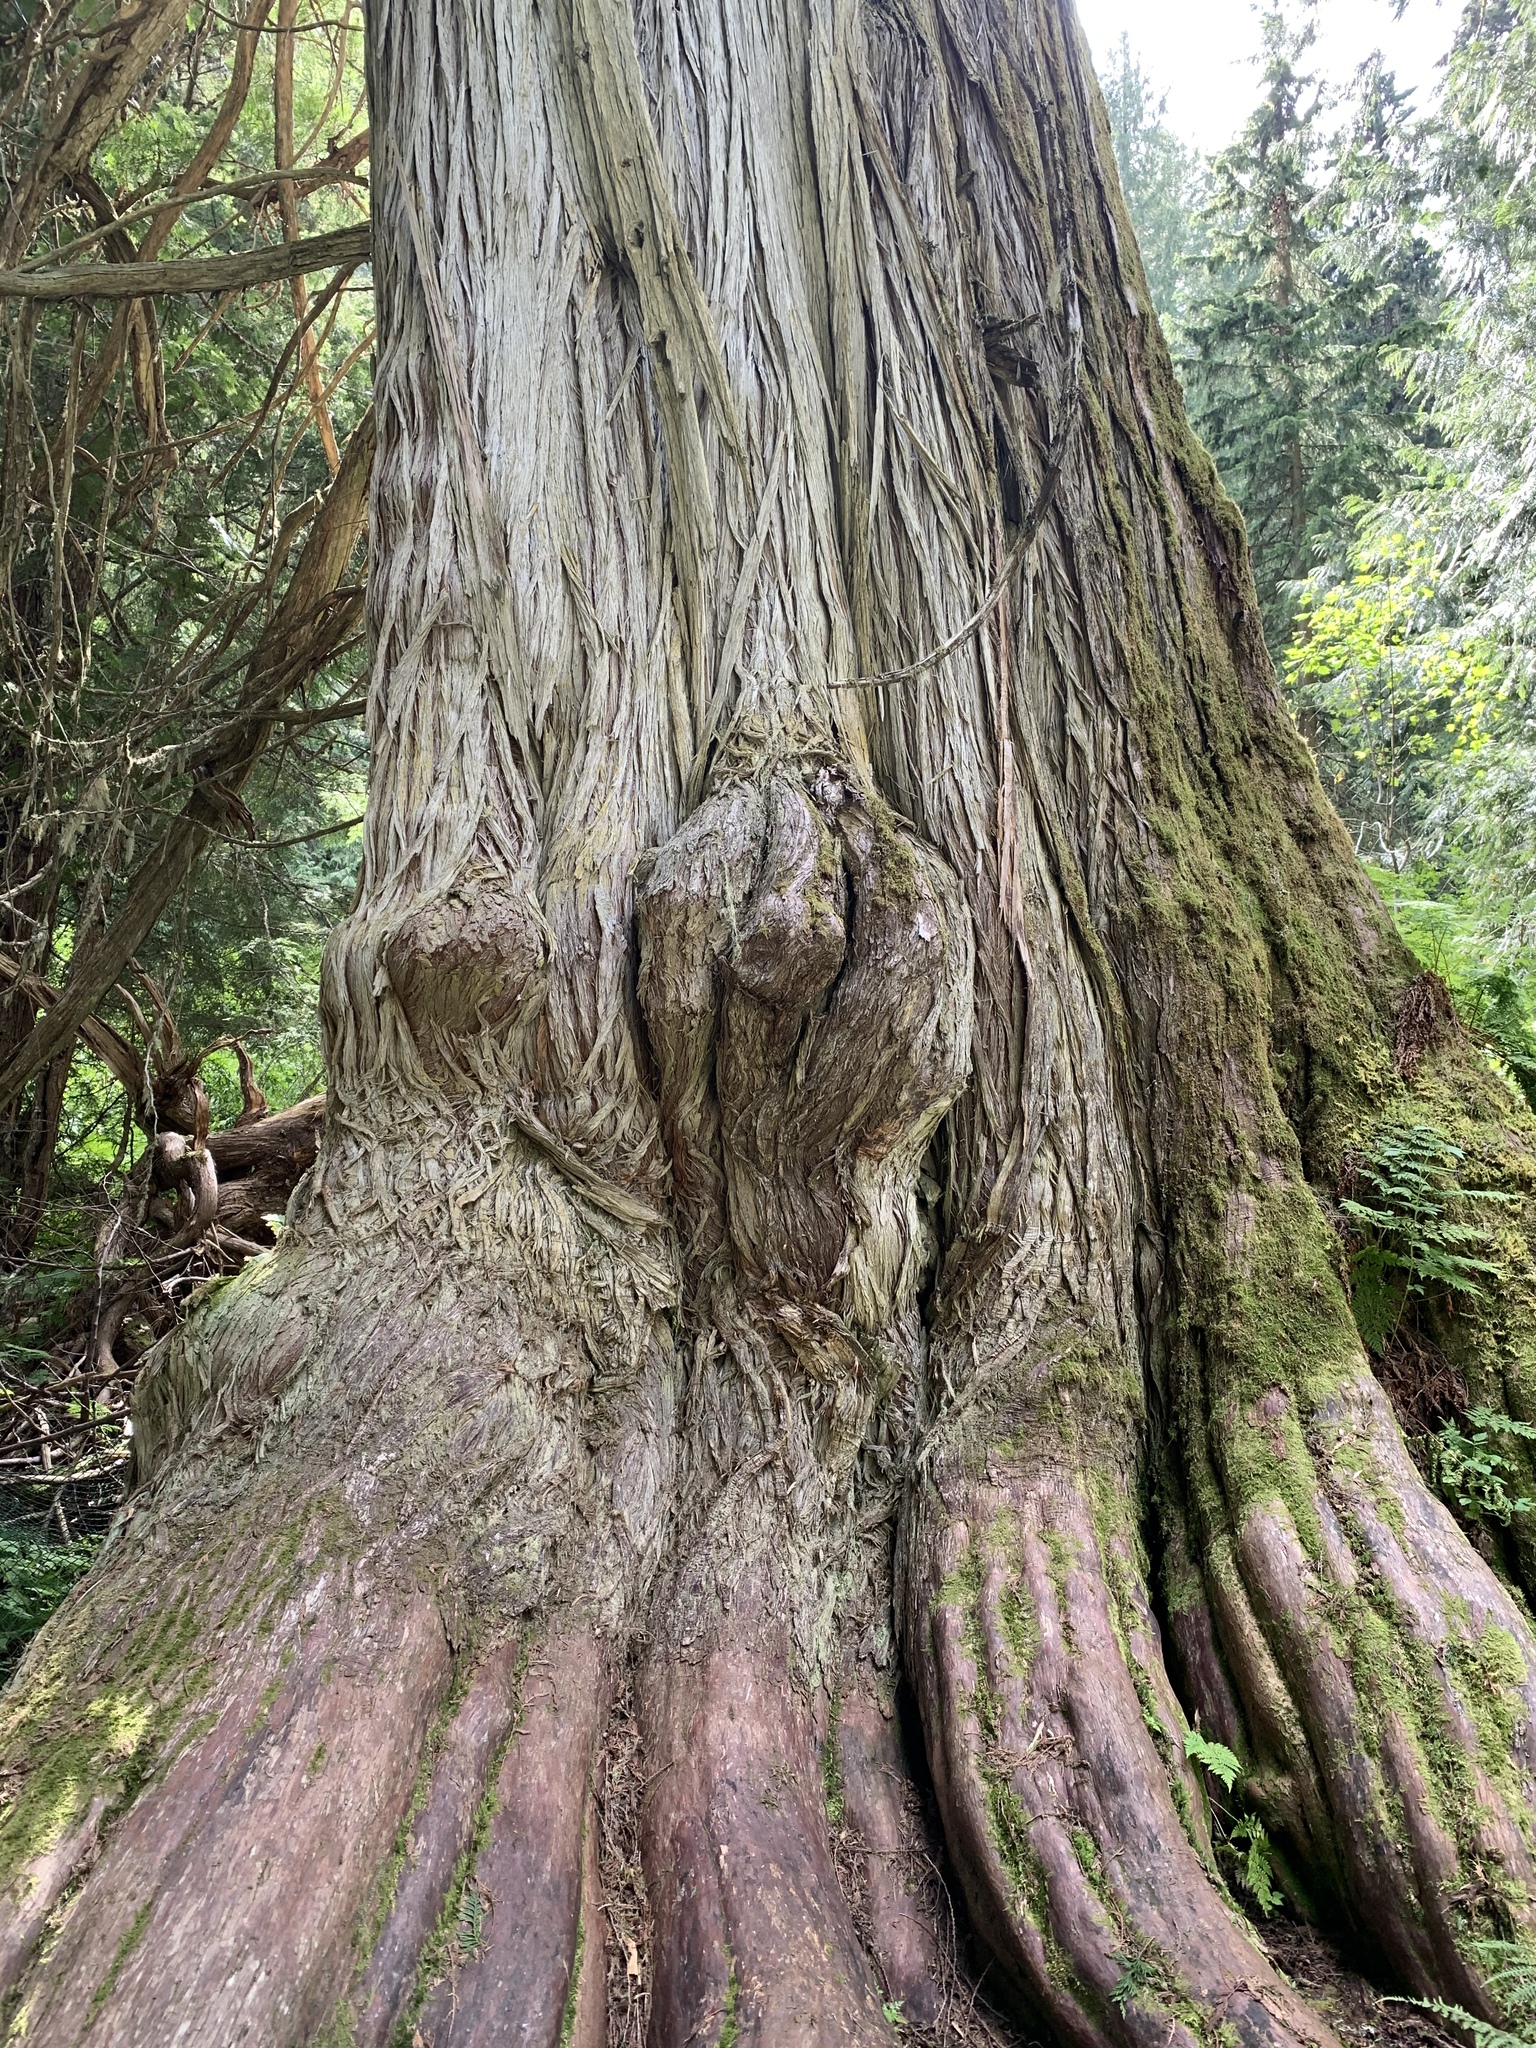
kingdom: Plantae
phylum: Tracheophyta
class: Pinopsida
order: Pinales
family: Cupressaceae
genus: Thuja
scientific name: Thuja plicata
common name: Western red-cedar
